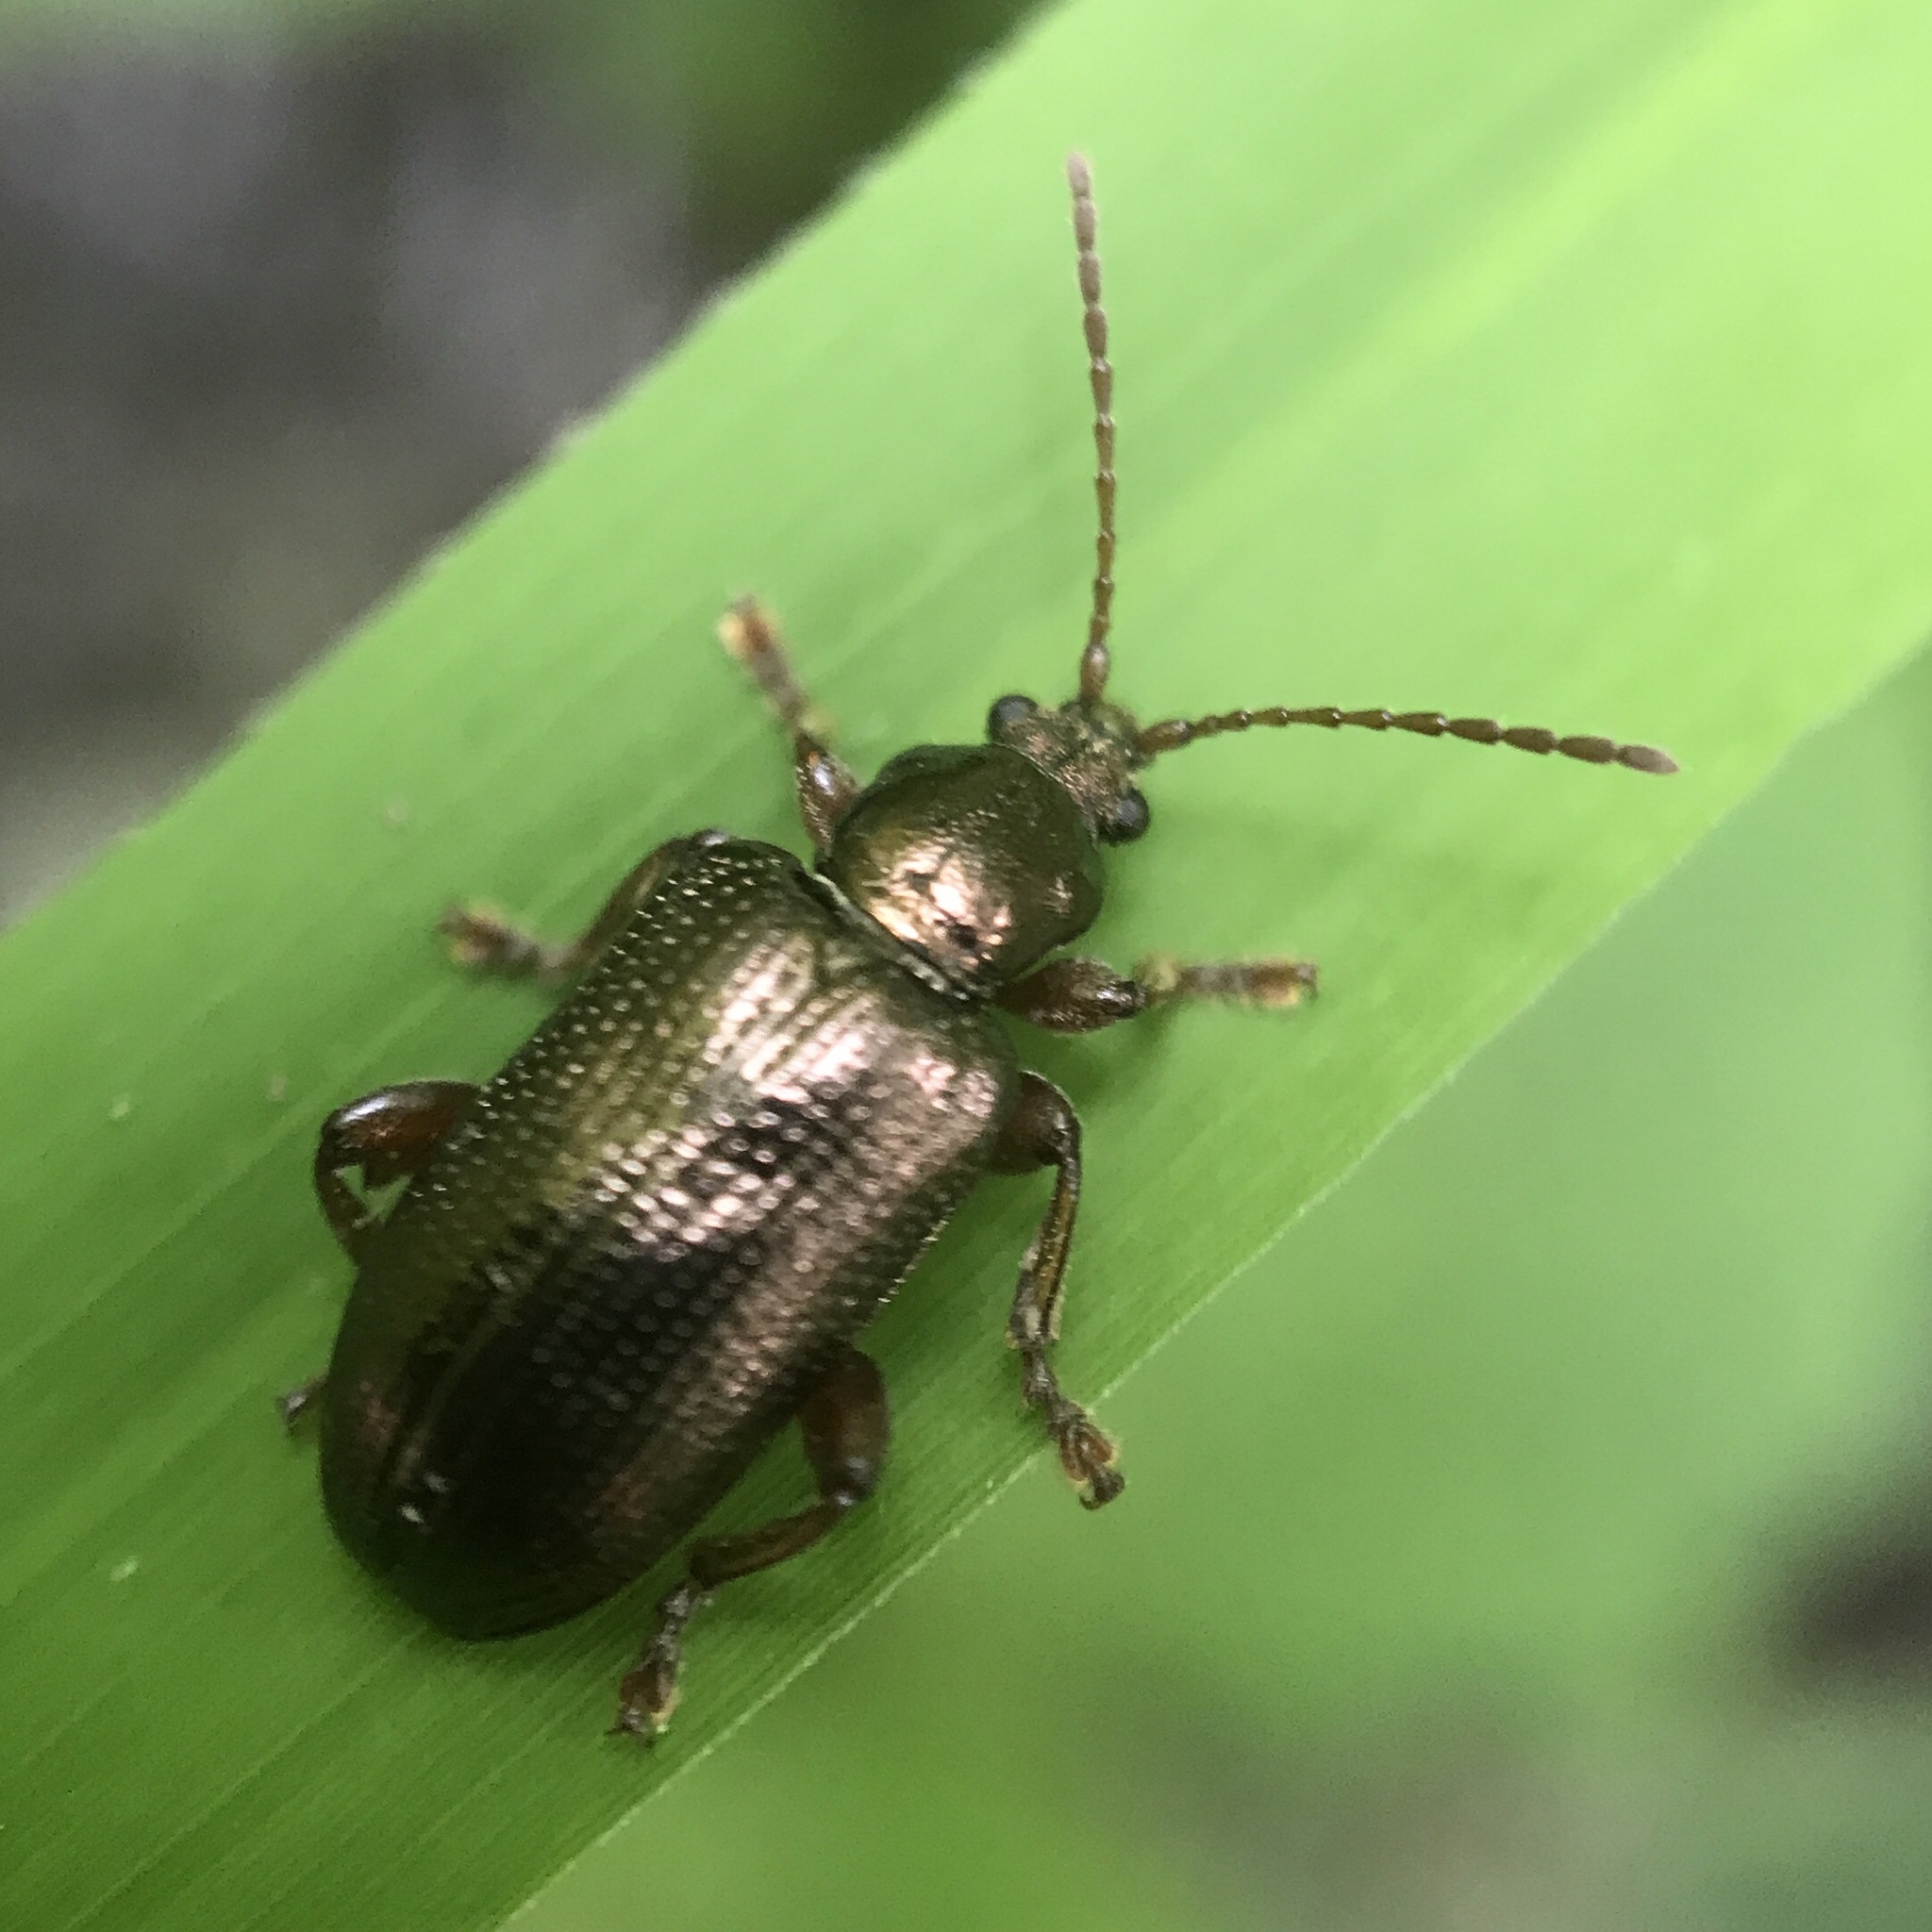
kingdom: Animalia
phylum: Arthropoda
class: Insecta
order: Coleoptera
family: Chrysomelidae
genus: Plateumaris
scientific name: Plateumaris rufa
